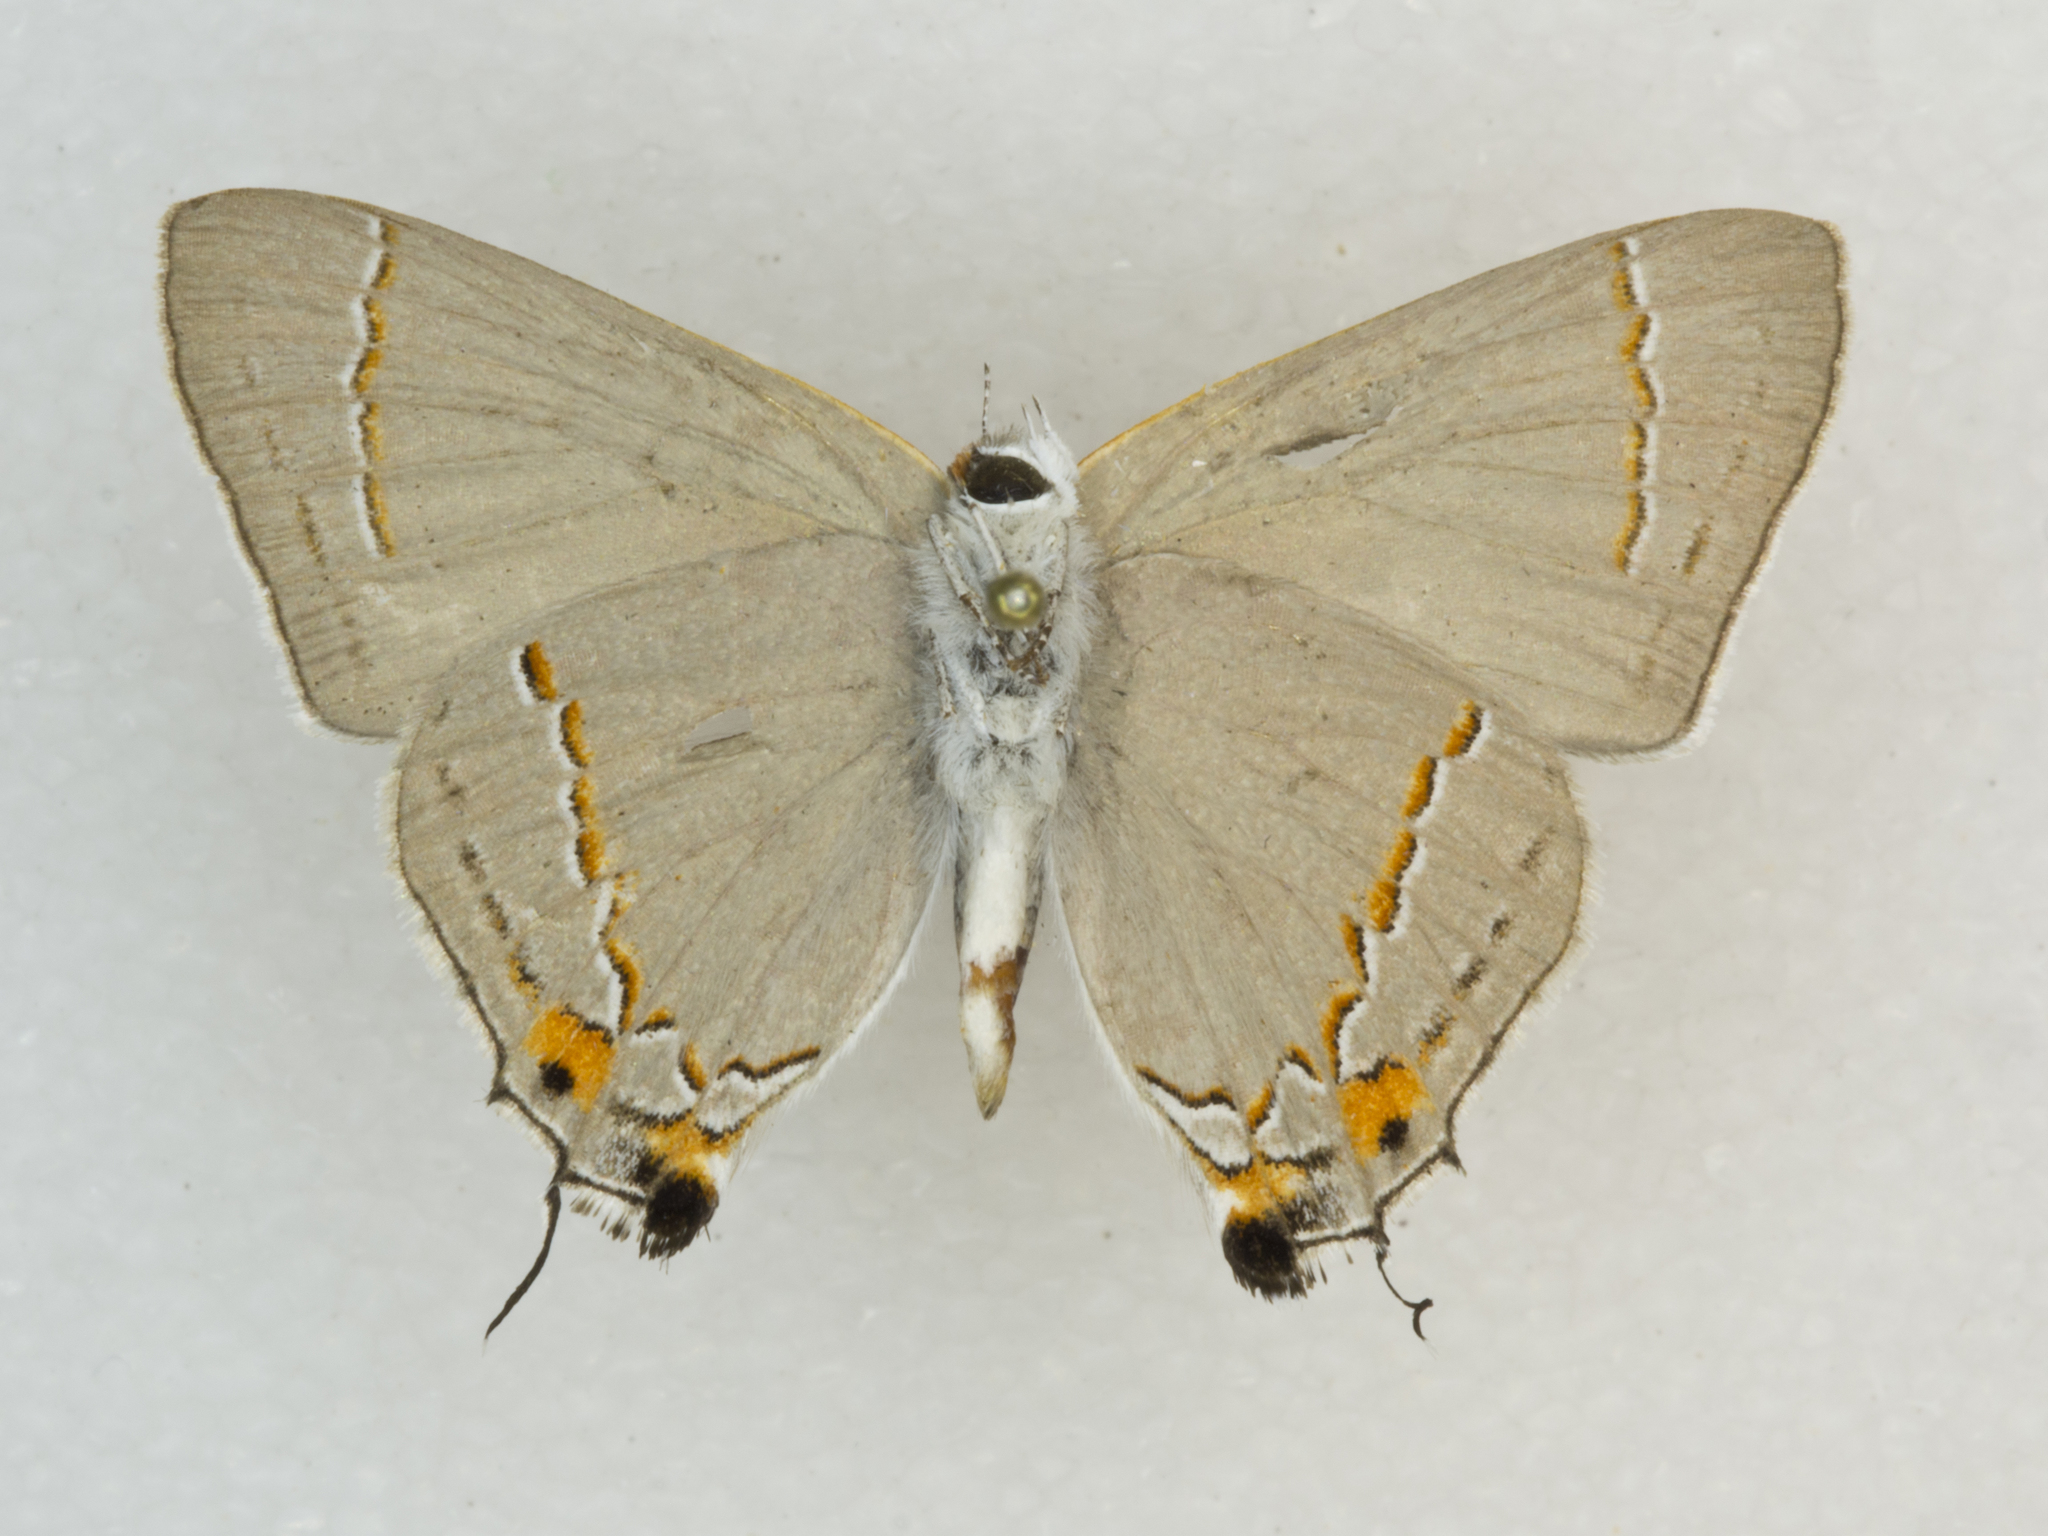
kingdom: Animalia
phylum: Arthropoda
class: Insecta
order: Lepidoptera
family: Lycaenidae
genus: Strymon
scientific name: Strymon melinus
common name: Gray hairstreak
